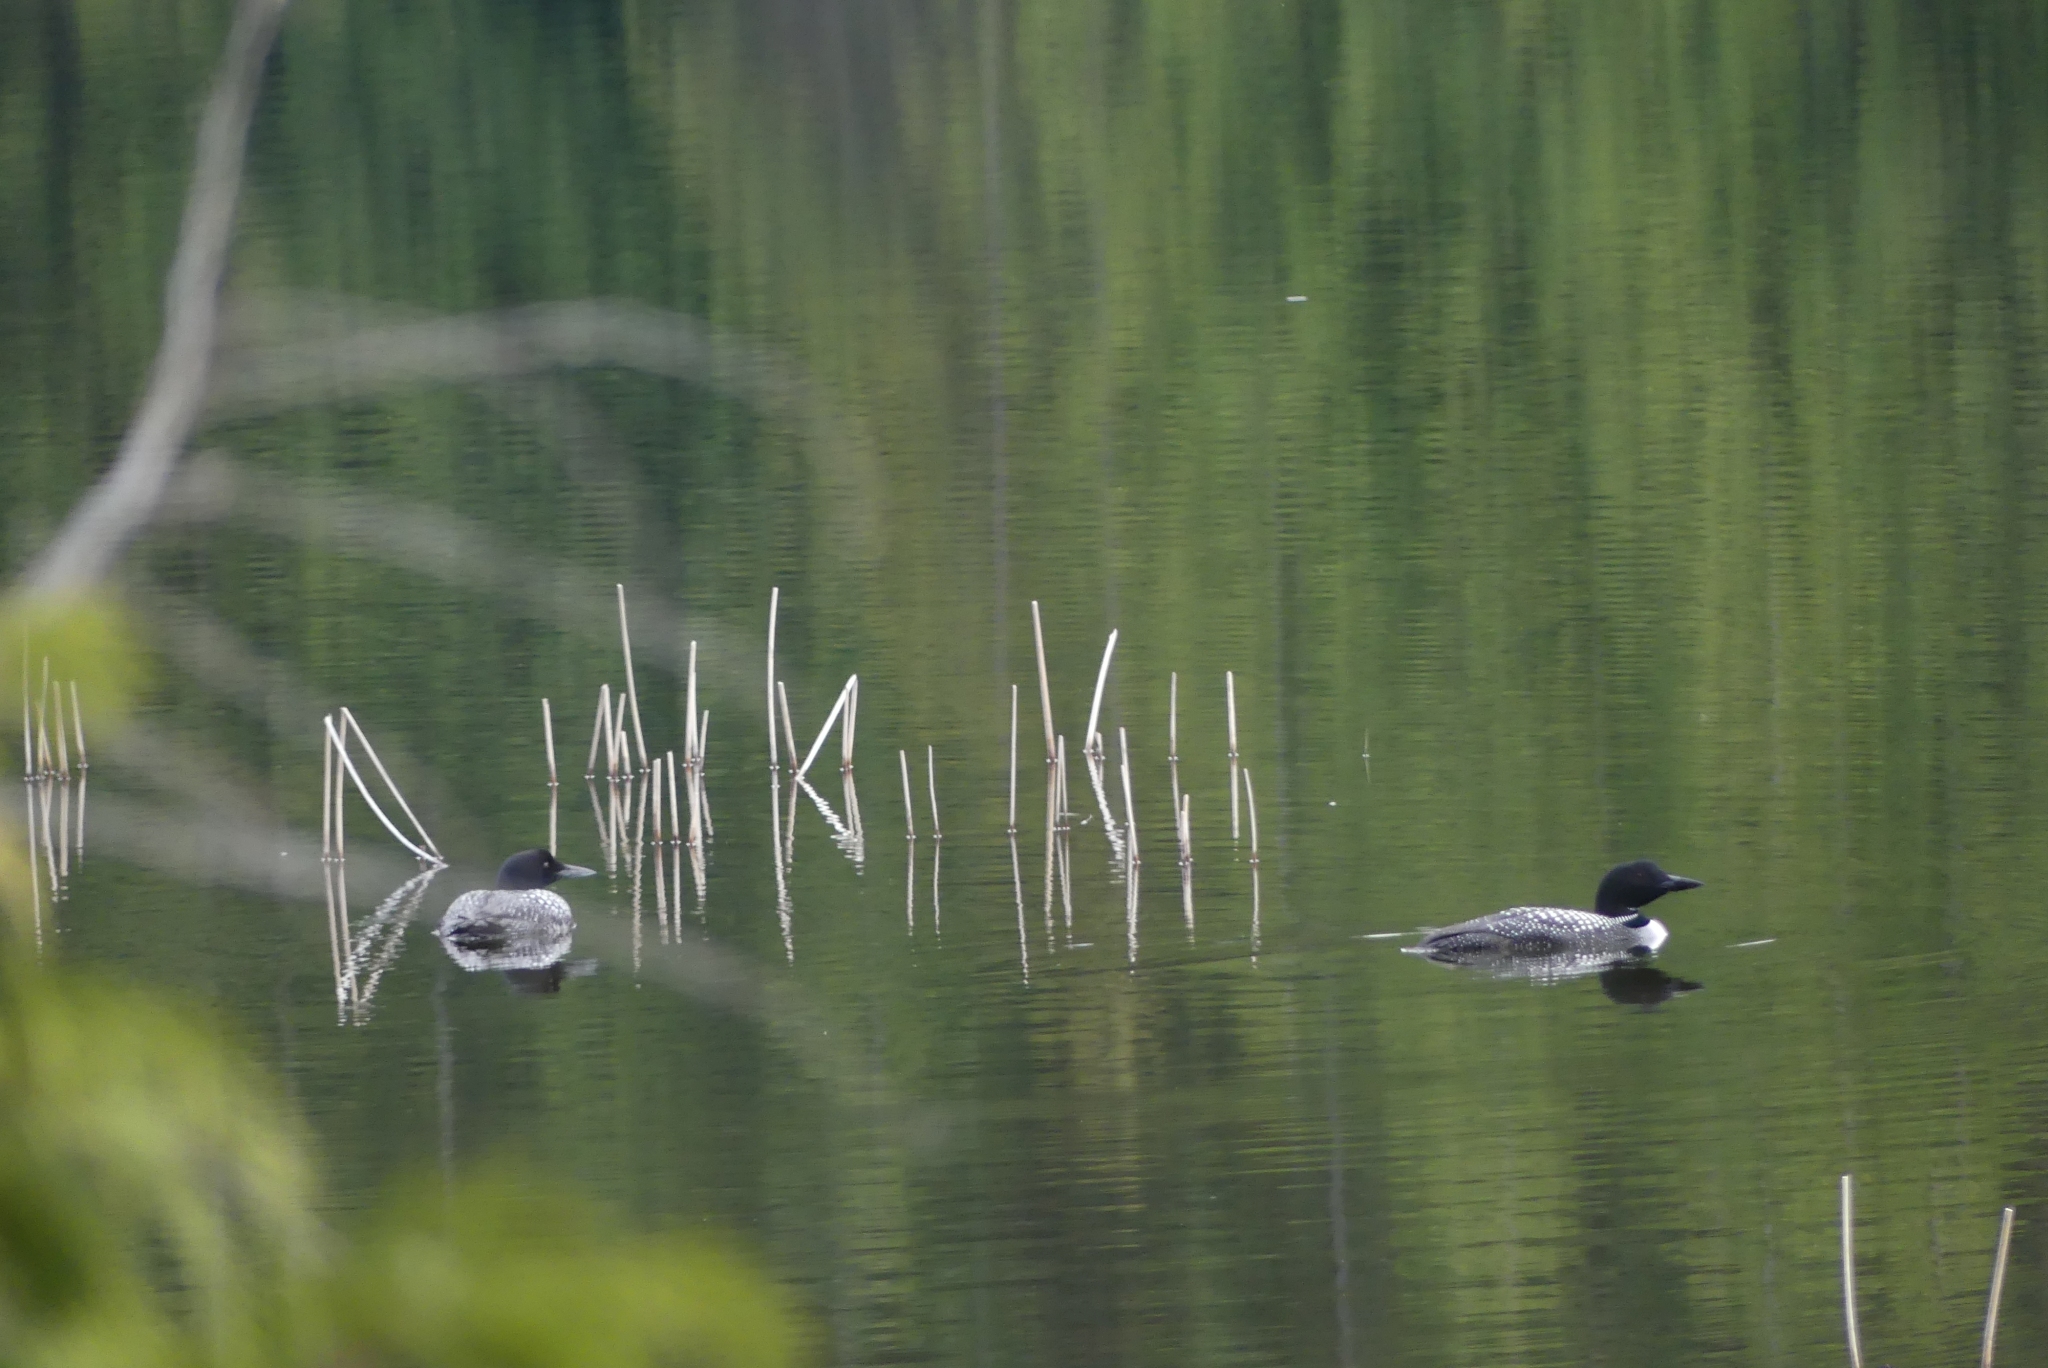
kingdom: Animalia
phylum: Chordata
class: Aves
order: Gaviiformes
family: Gaviidae
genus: Gavia
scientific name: Gavia immer
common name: Common loon
